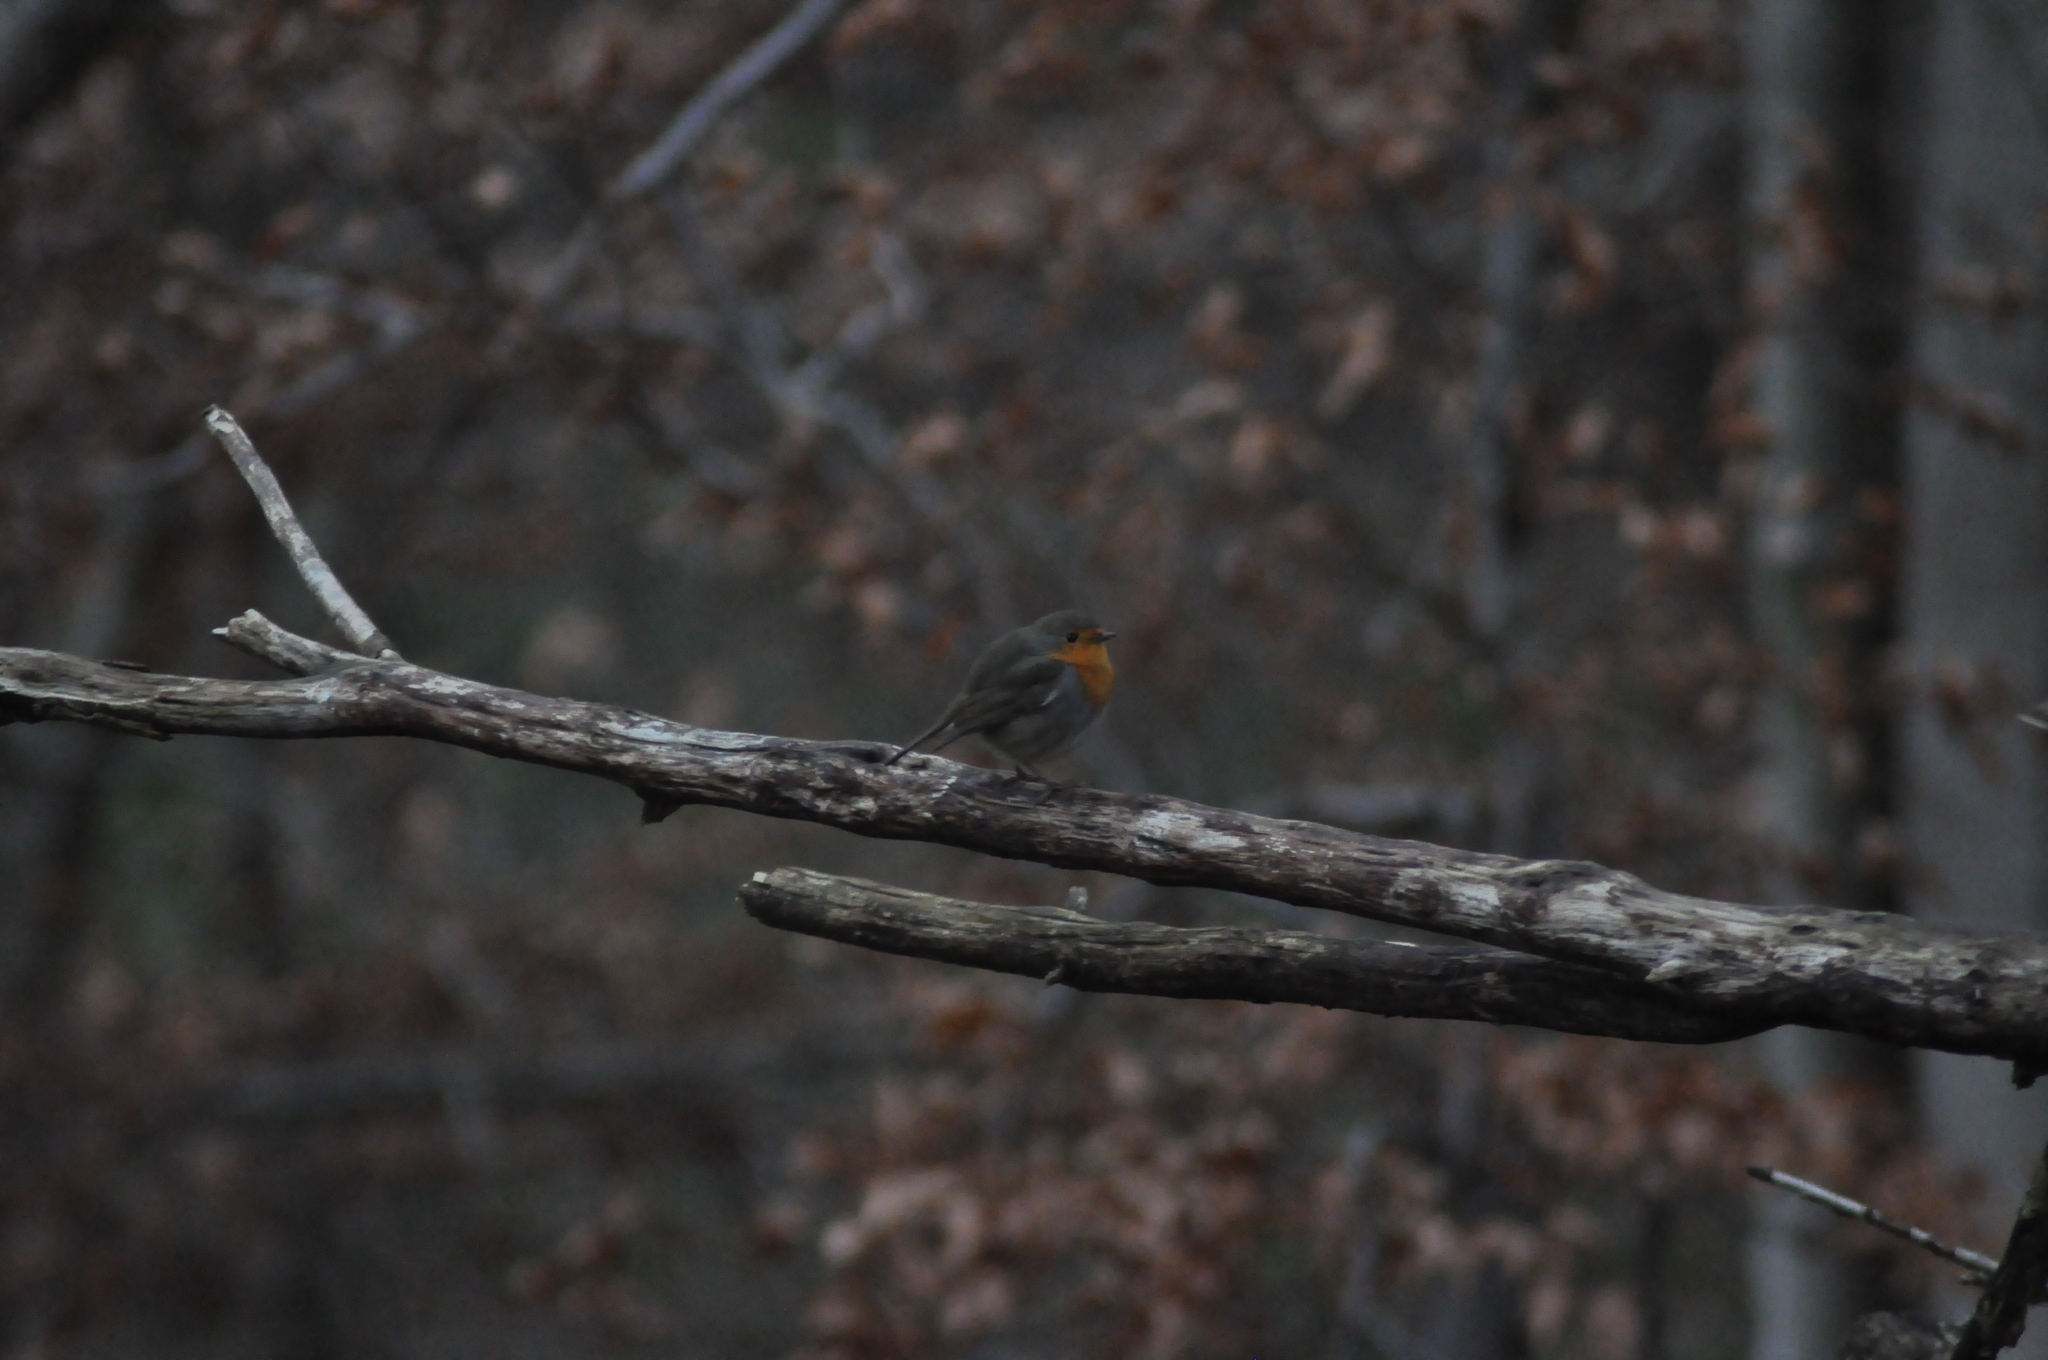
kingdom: Animalia
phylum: Chordata
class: Aves
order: Passeriformes
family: Muscicapidae
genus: Erithacus
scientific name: Erithacus rubecula
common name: European robin
